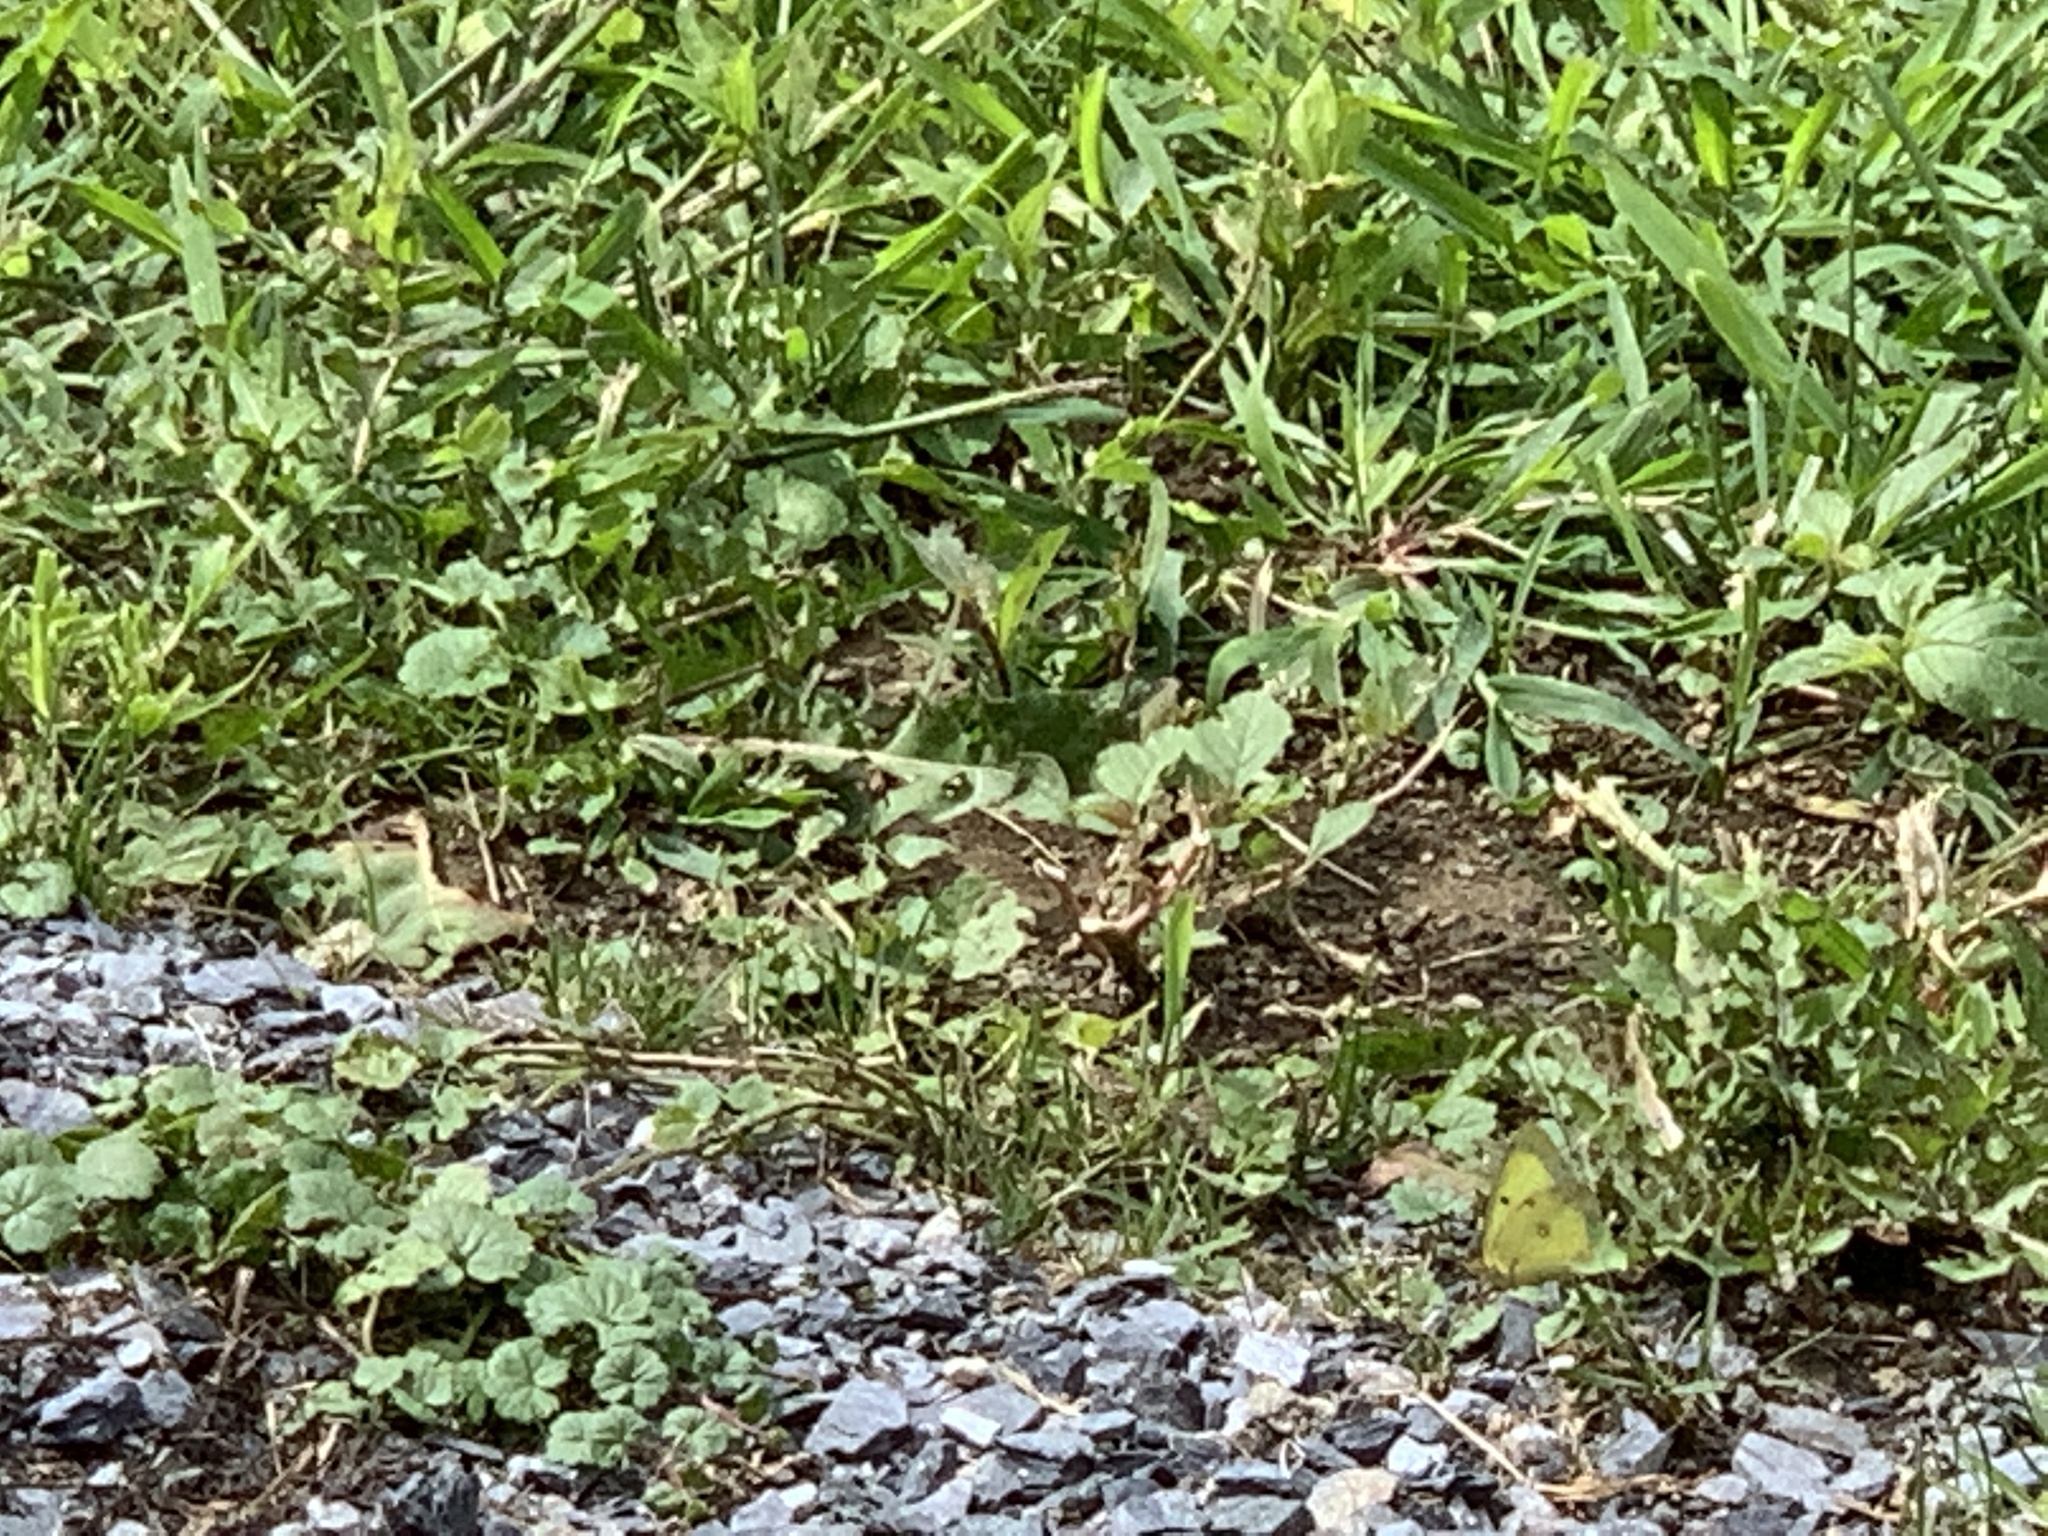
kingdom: Animalia
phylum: Arthropoda
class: Insecta
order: Lepidoptera
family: Pieridae
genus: Colias
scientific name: Colias philodice
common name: Clouded sulphur
